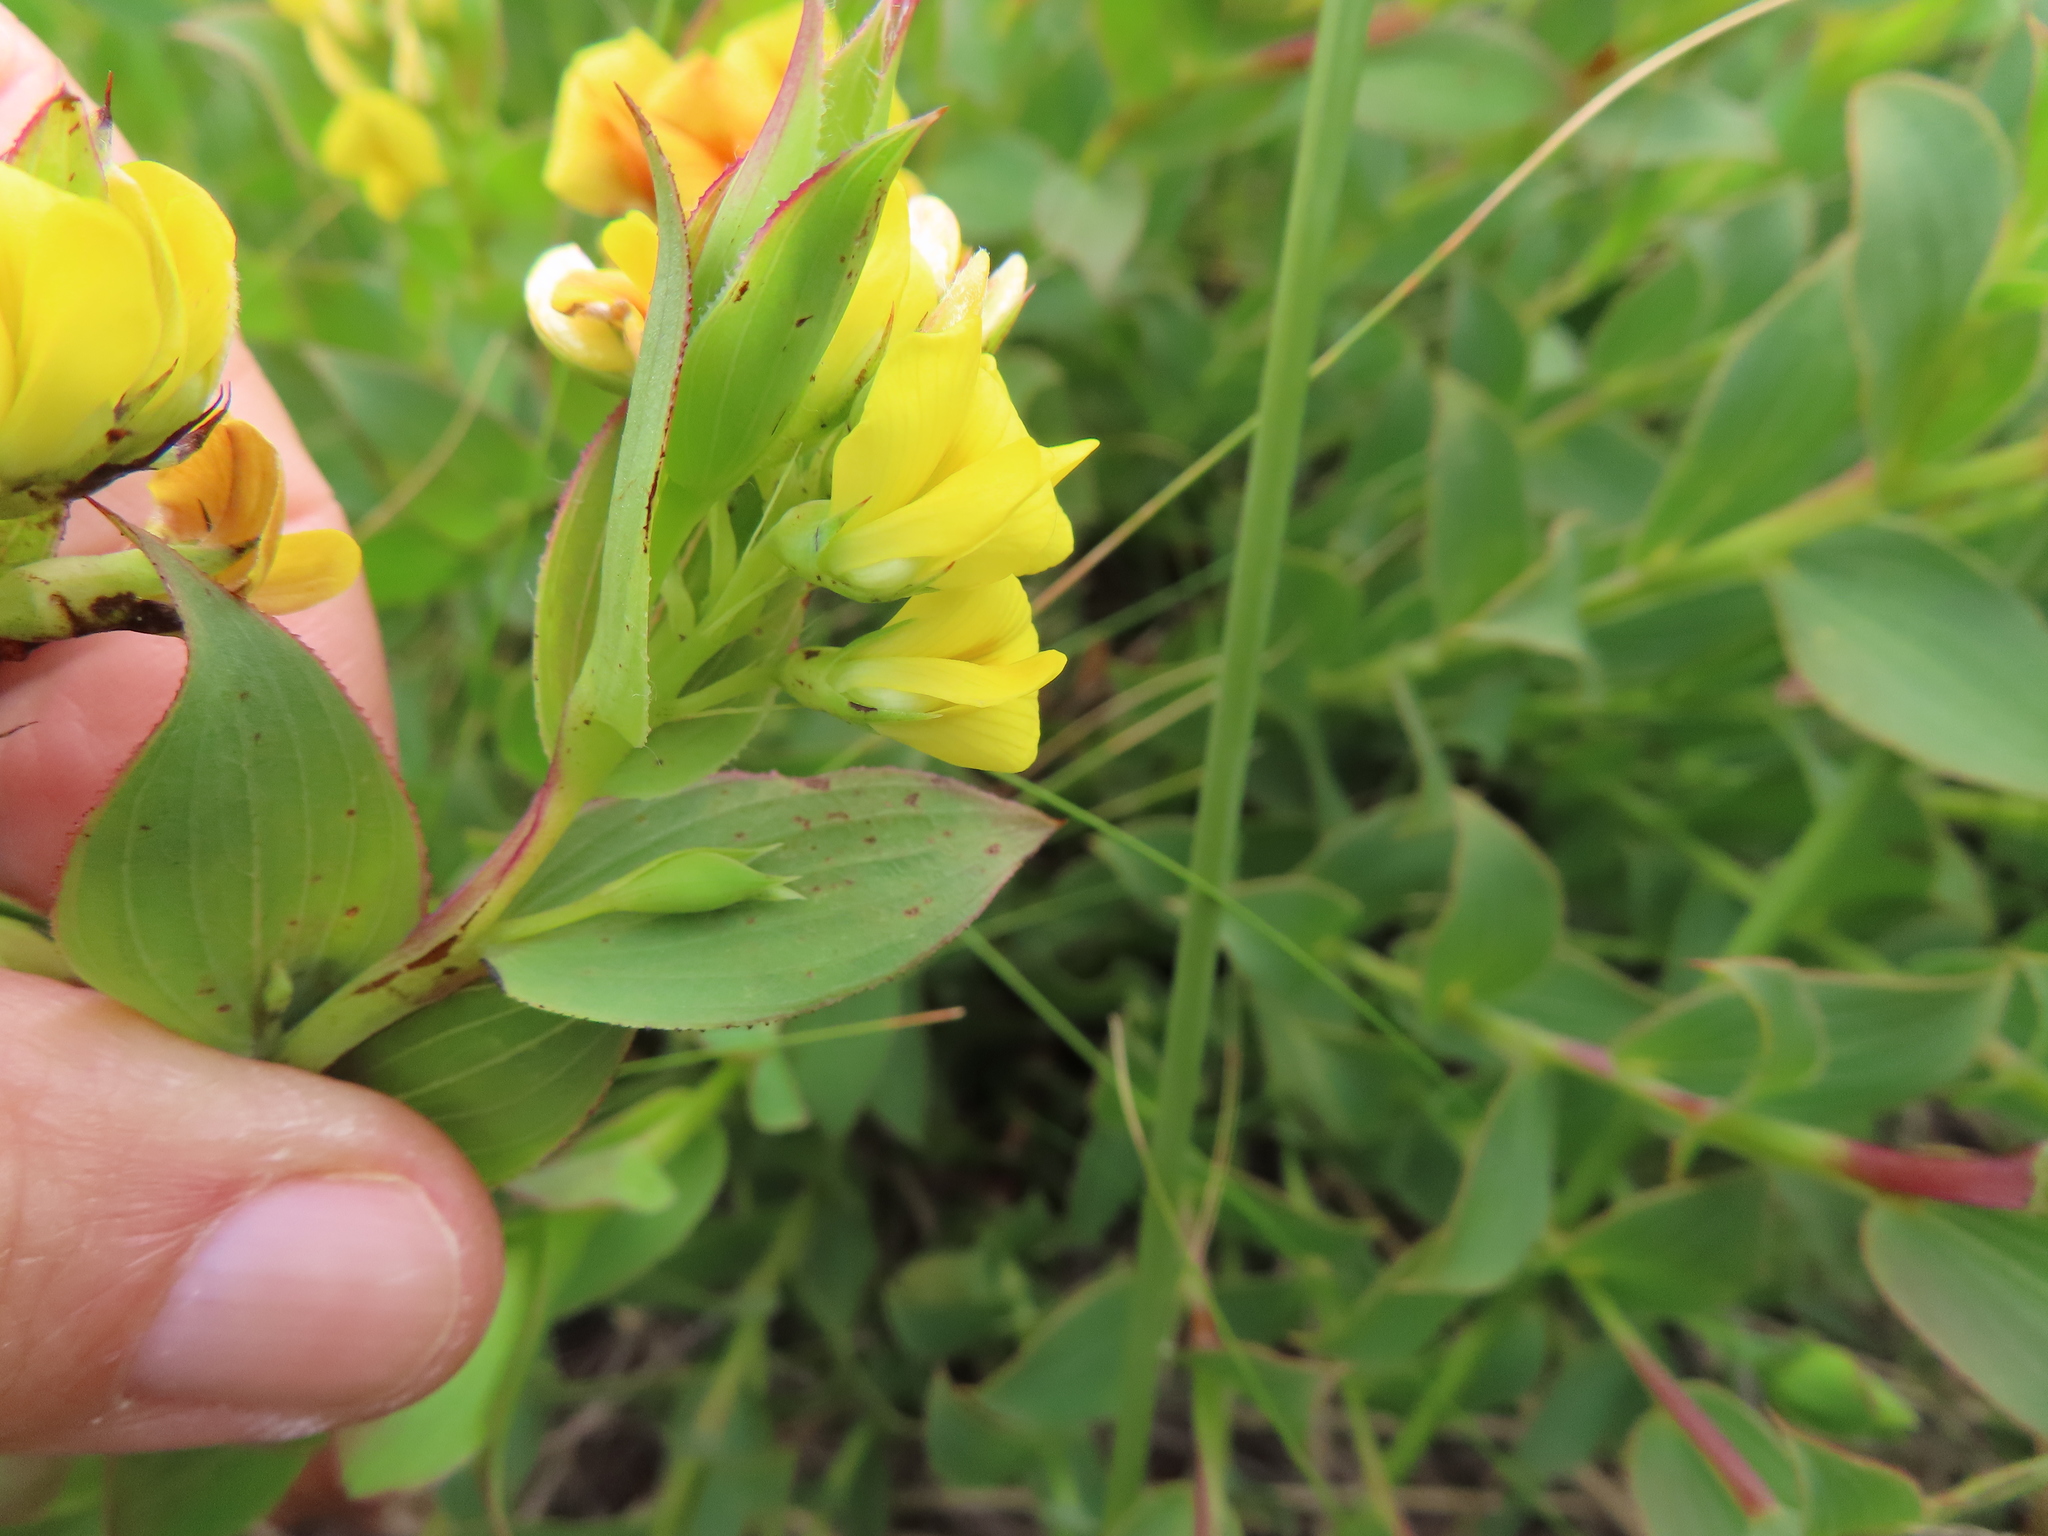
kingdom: Plantae
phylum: Tracheophyta
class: Magnoliopsida
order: Fabales
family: Fabaceae
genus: Aspalathus
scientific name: Aspalathus crenata
